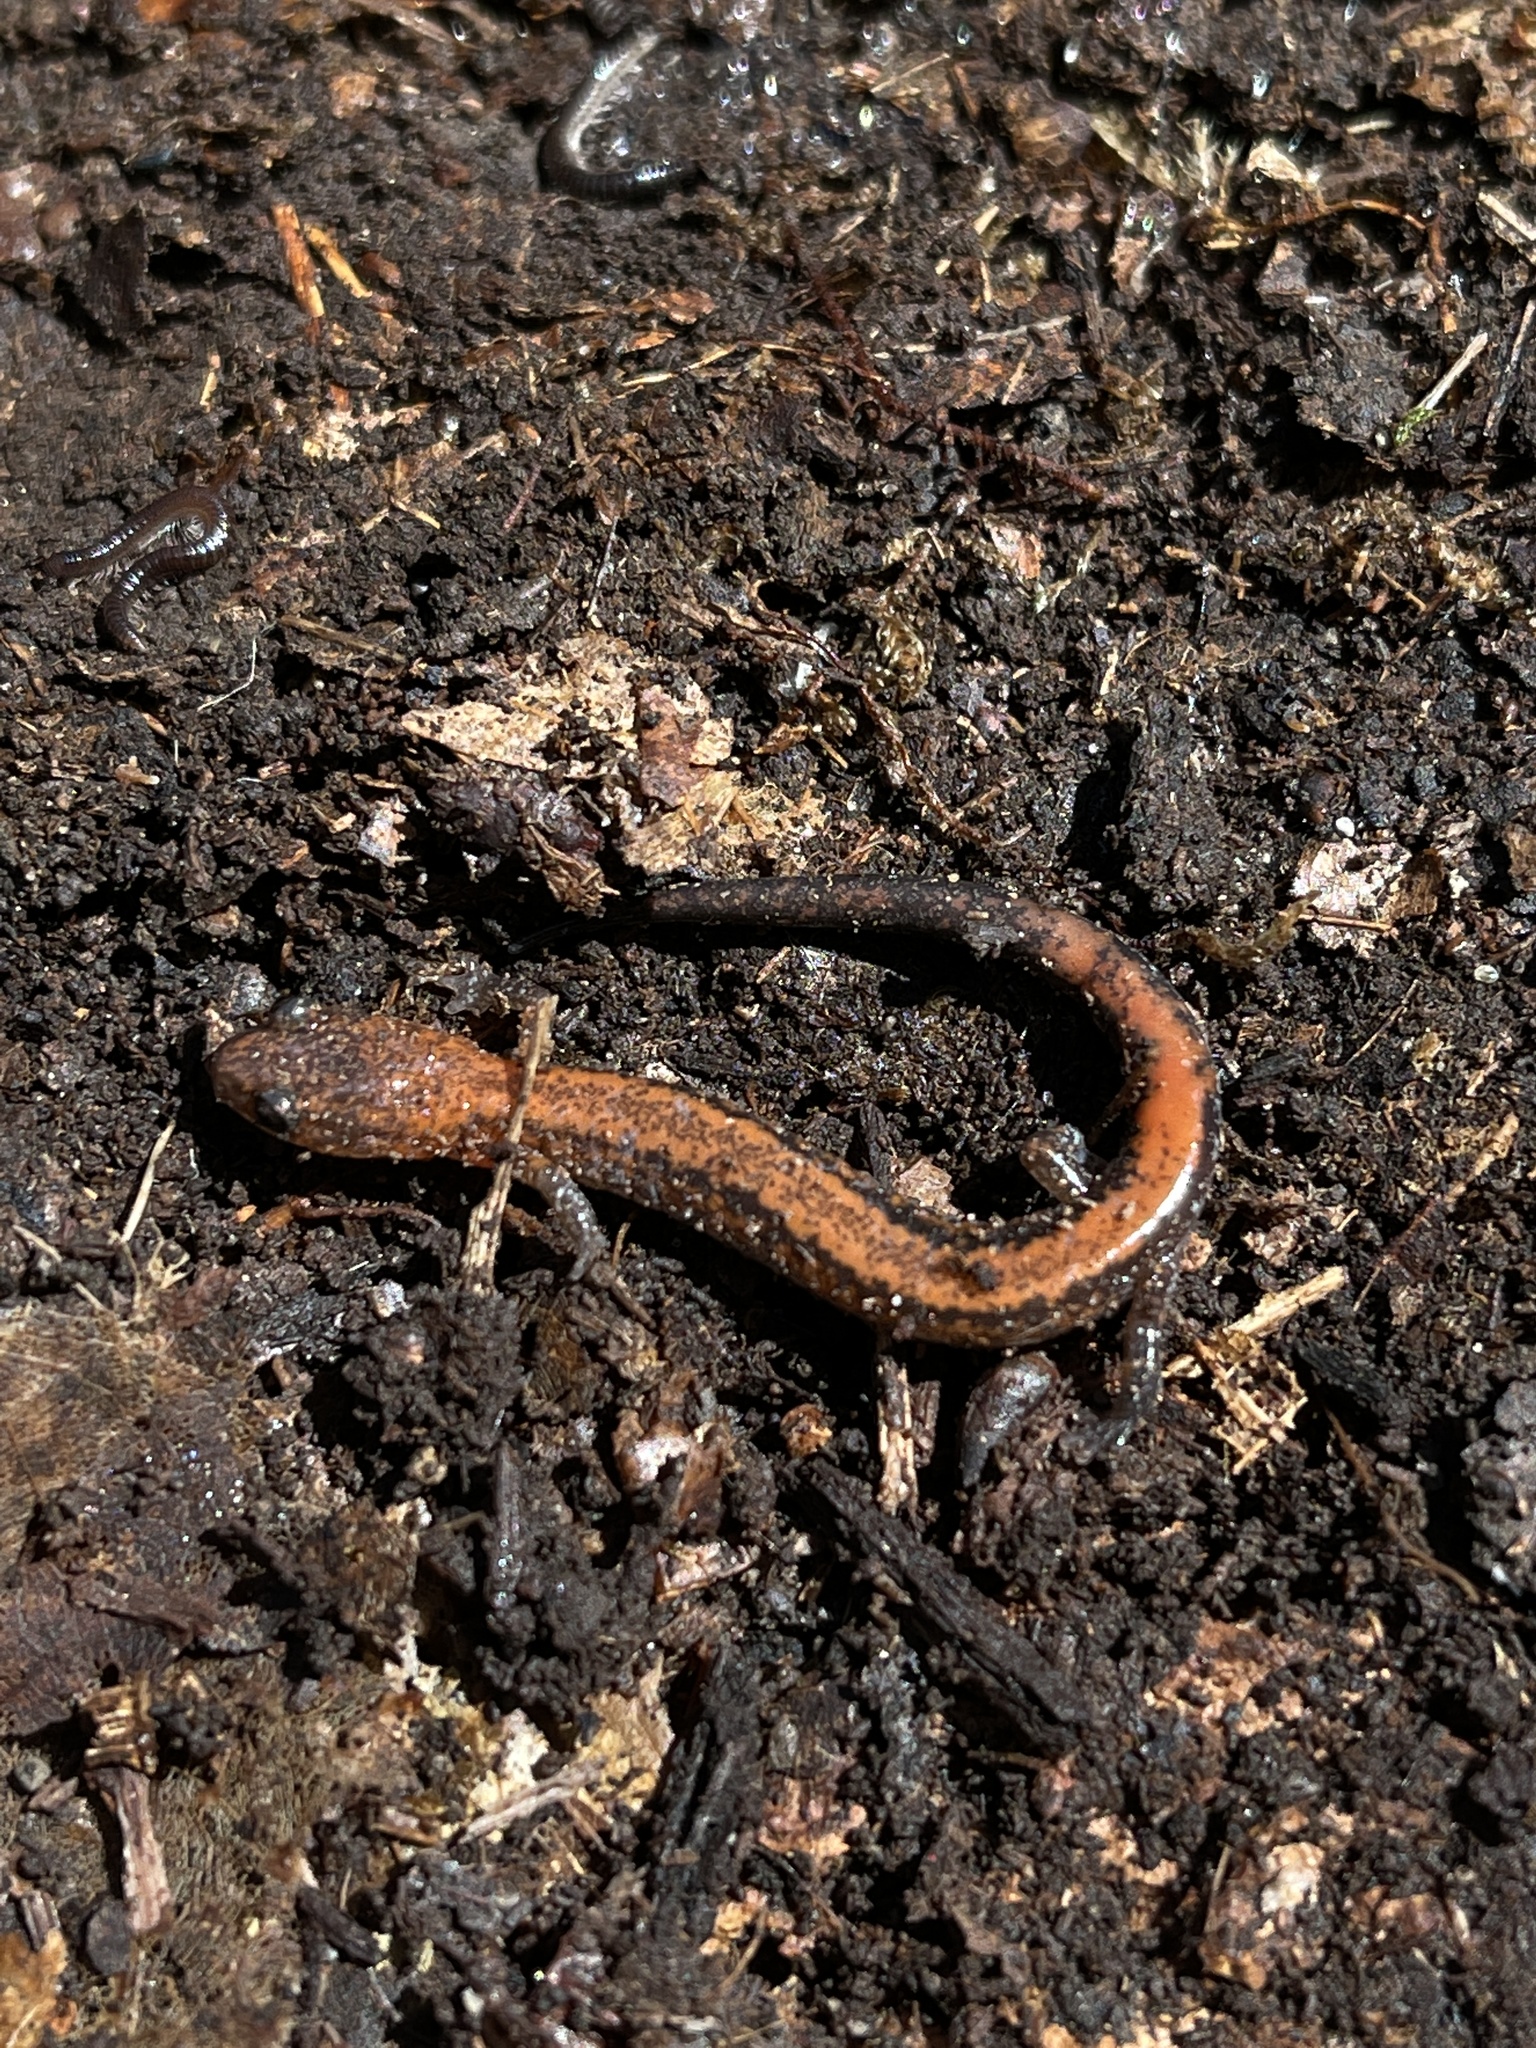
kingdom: Animalia
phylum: Chordata
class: Amphibia
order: Caudata
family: Plethodontidae
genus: Plethodon
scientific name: Plethodon cinereus
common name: Redback salamander
